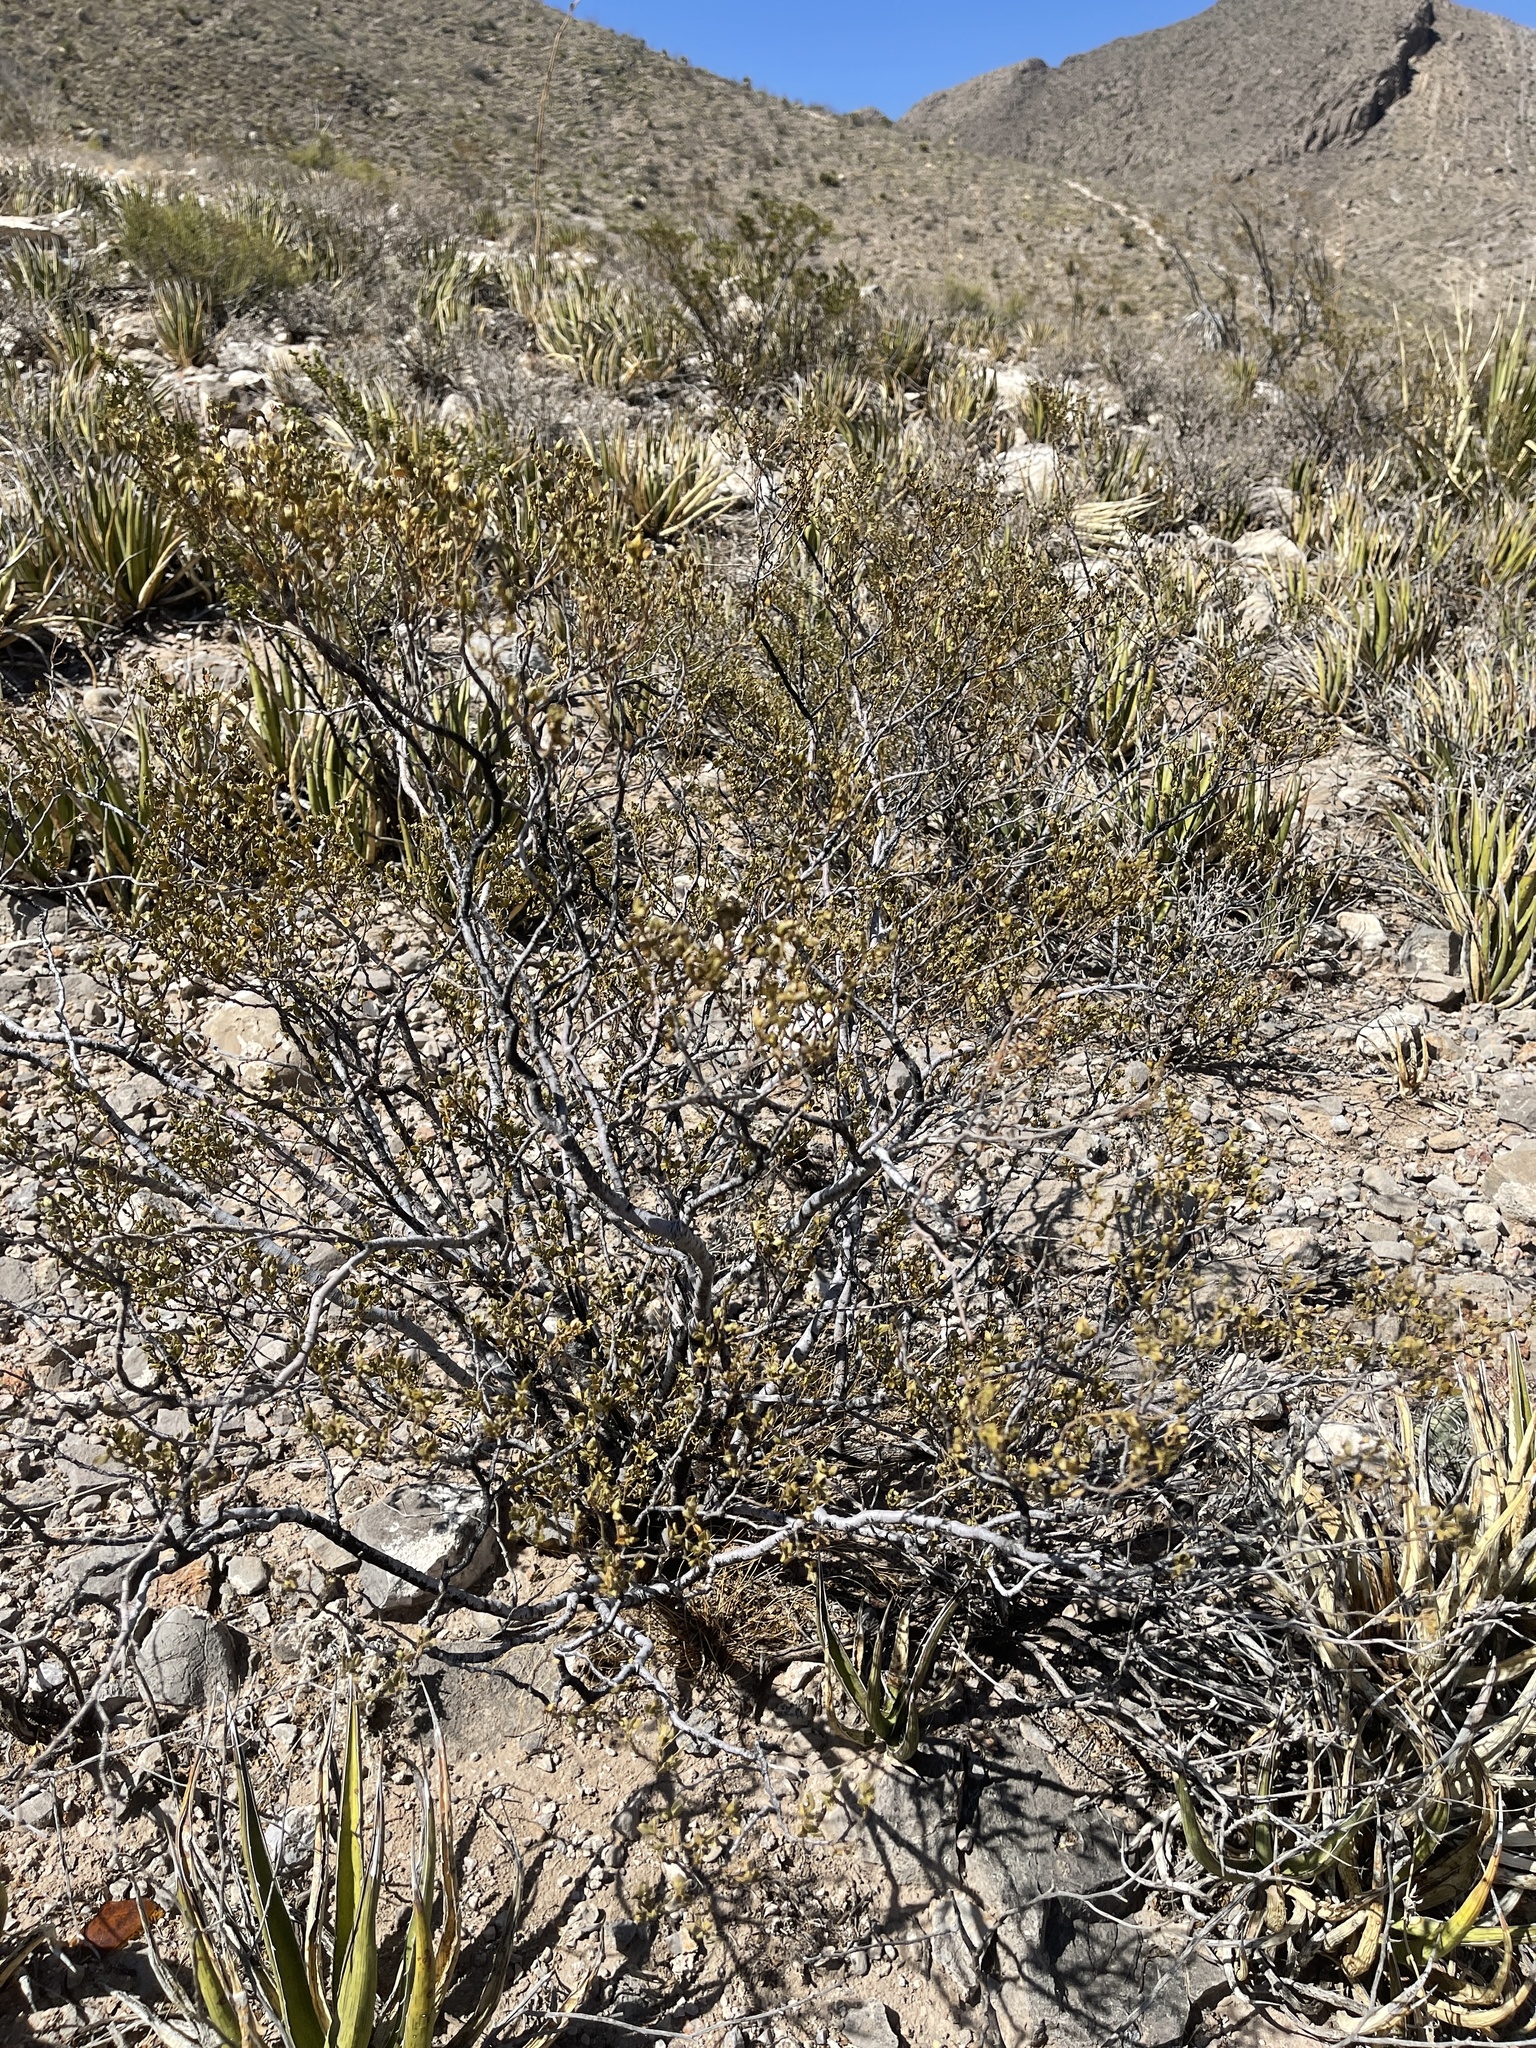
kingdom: Plantae
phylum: Tracheophyta
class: Magnoliopsida
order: Zygophyllales
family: Zygophyllaceae
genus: Larrea
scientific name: Larrea tridentata
